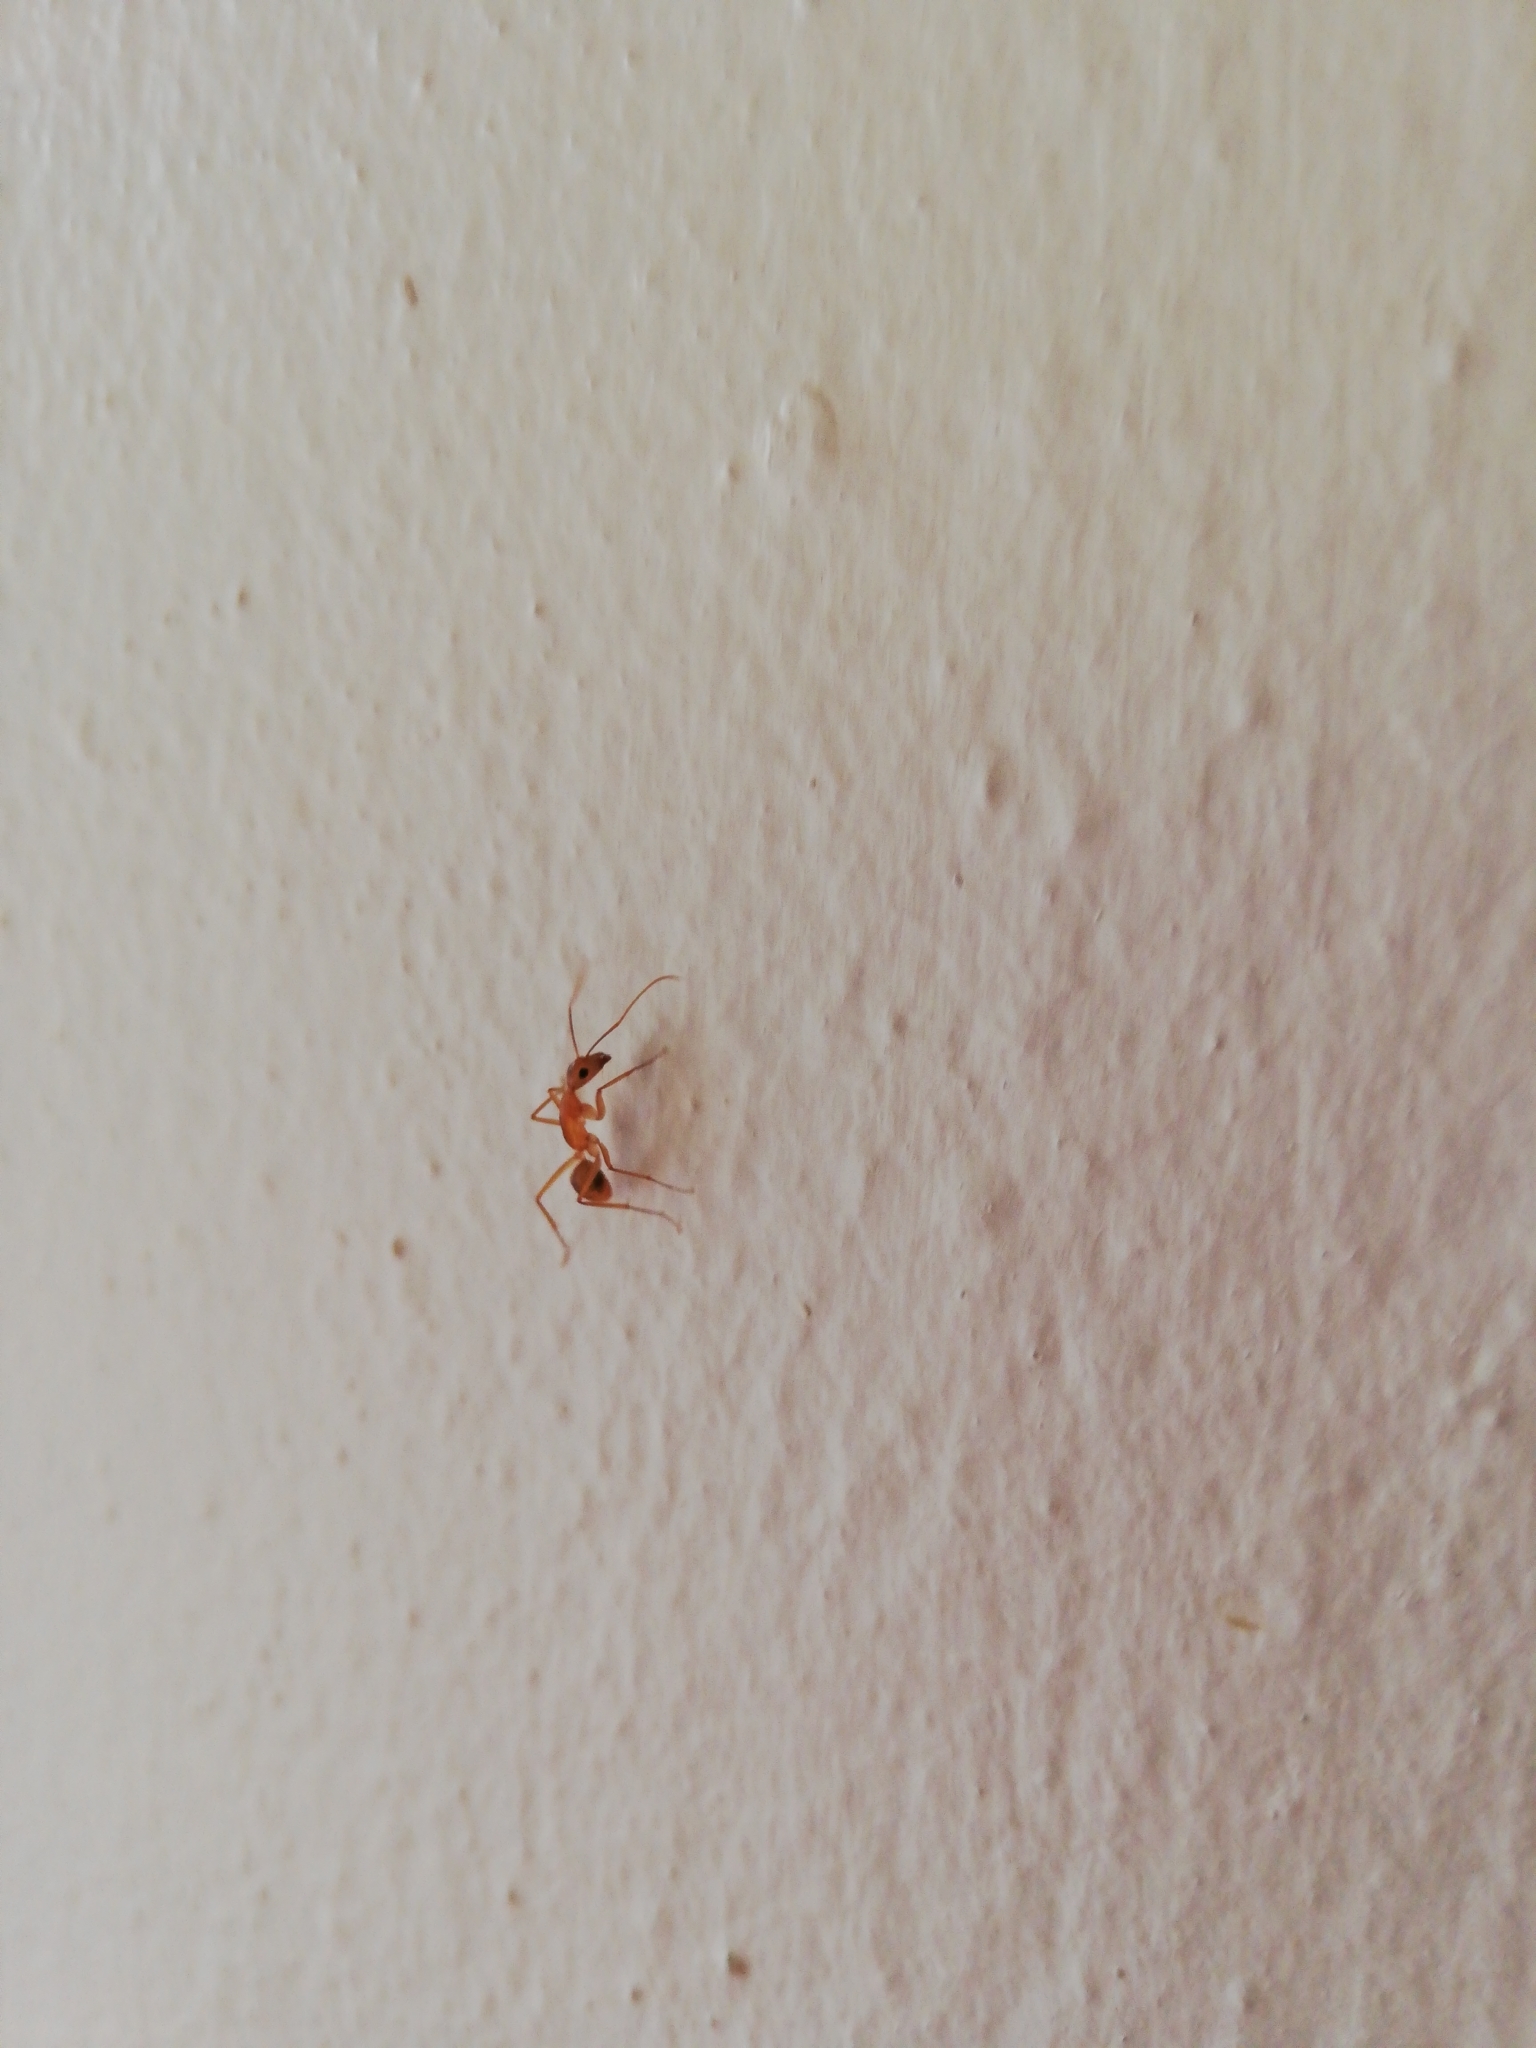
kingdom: Animalia
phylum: Arthropoda
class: Insecta
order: Hymenoptera
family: Formicidae
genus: Camponotus
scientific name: Camponotus maculatus
